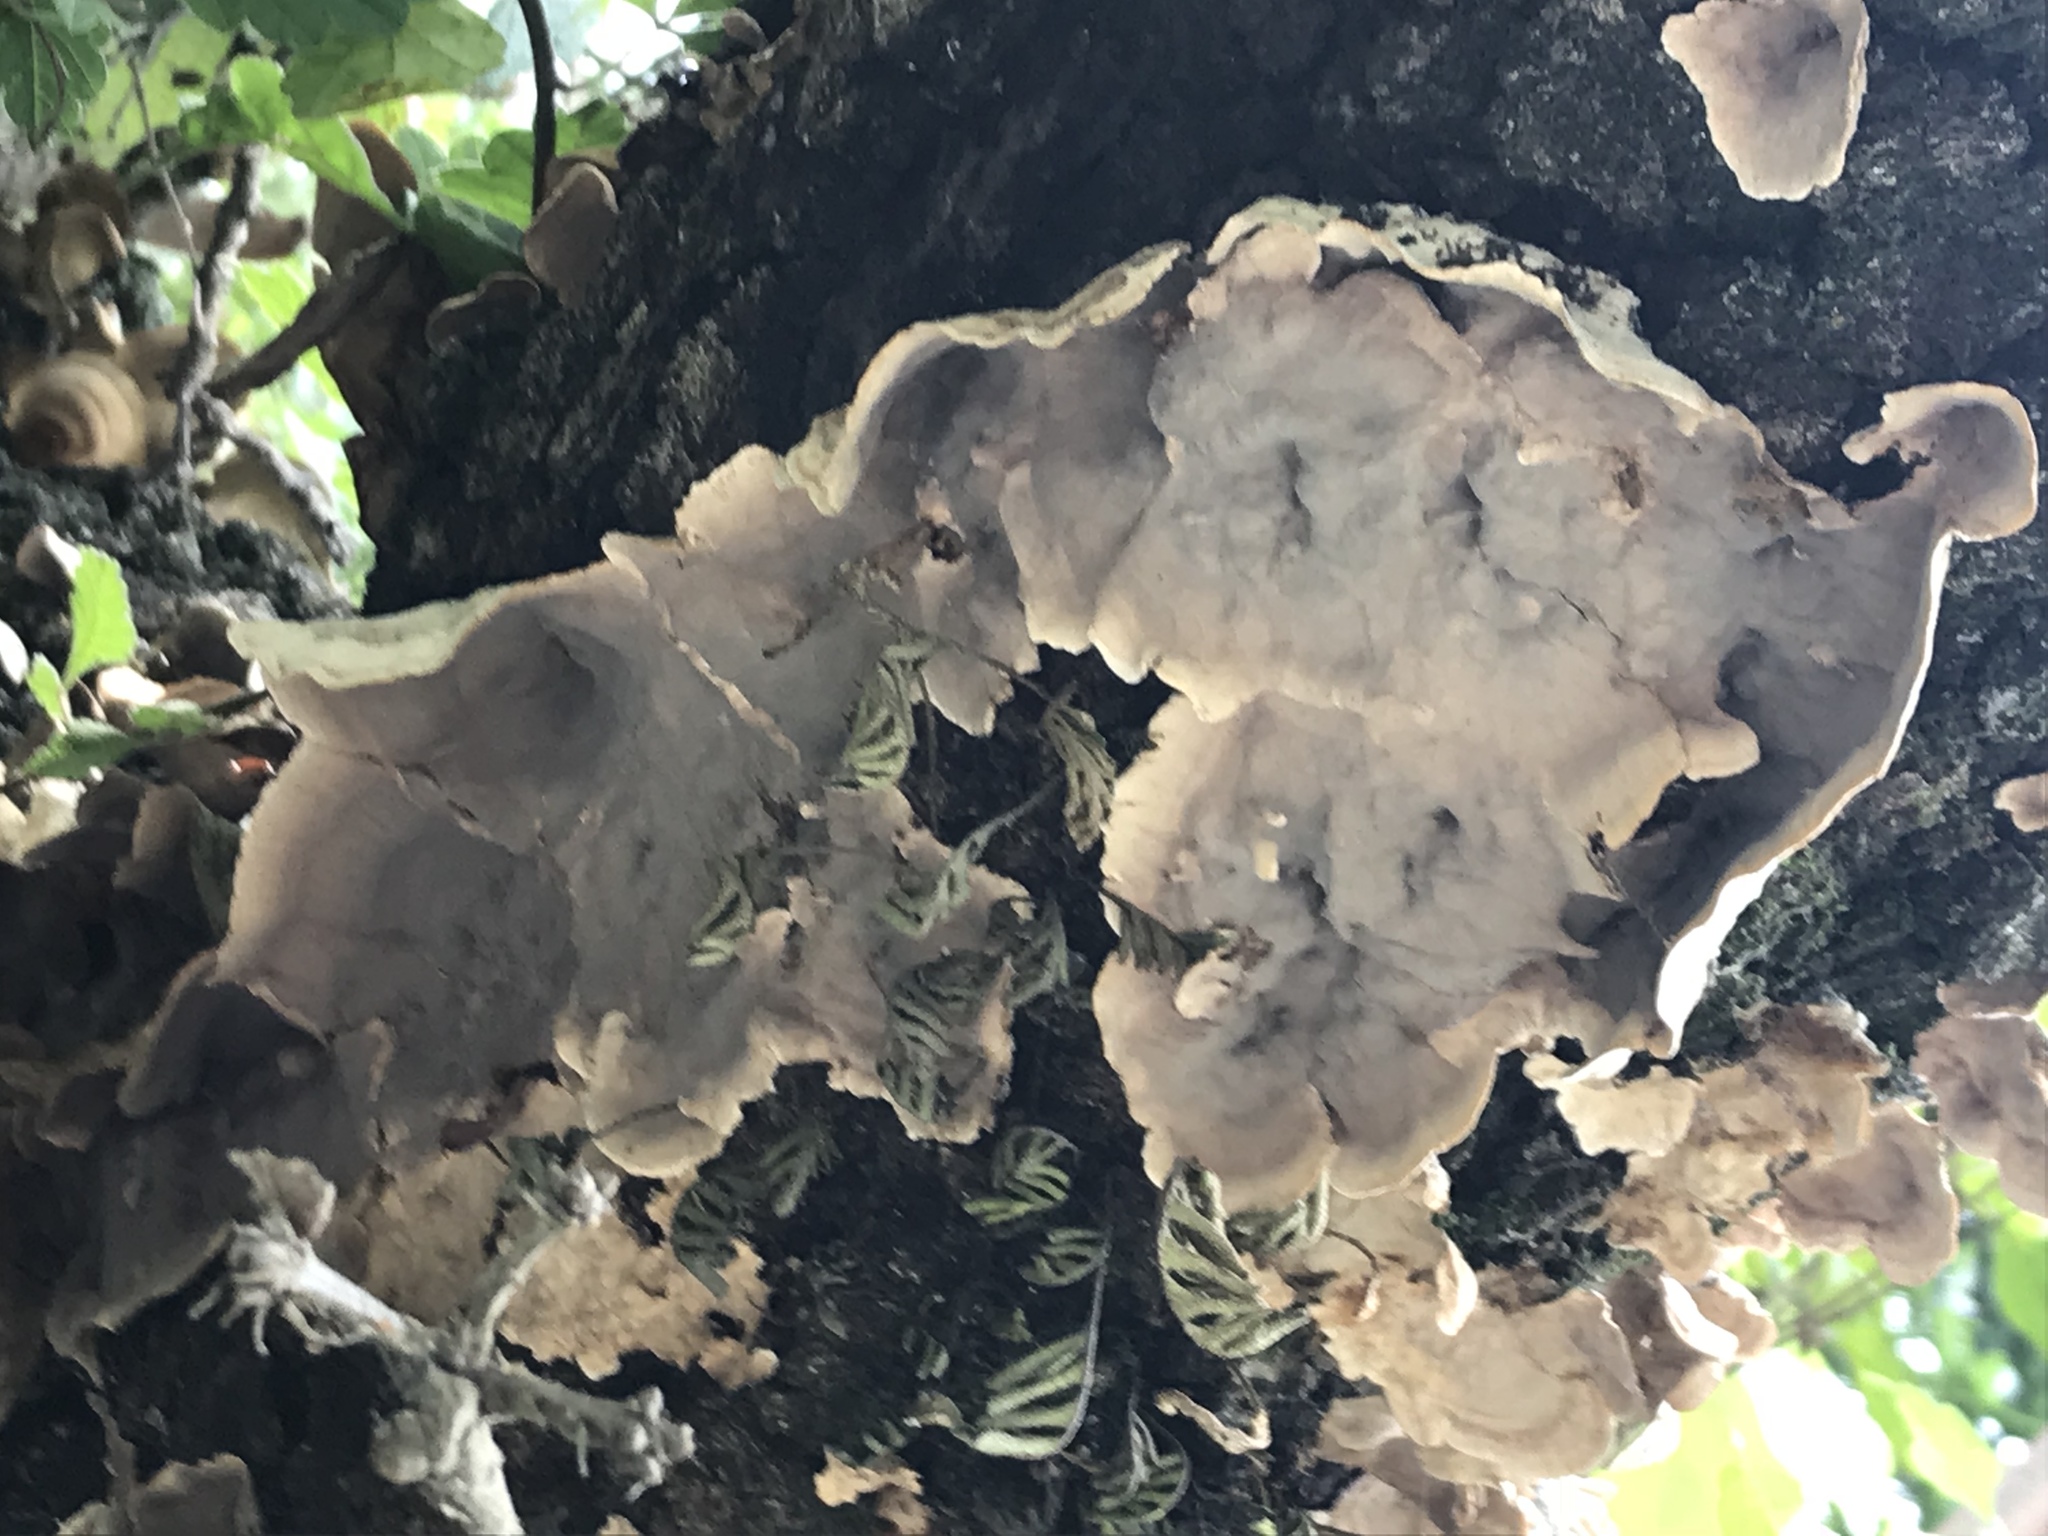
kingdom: Fungi
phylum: Basidiomycota
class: Agaricomycetes
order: Polyporales
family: Phanerochaetaceae
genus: Bjerkandera
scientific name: Bjerkandera adusta
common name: Smoky bracket
